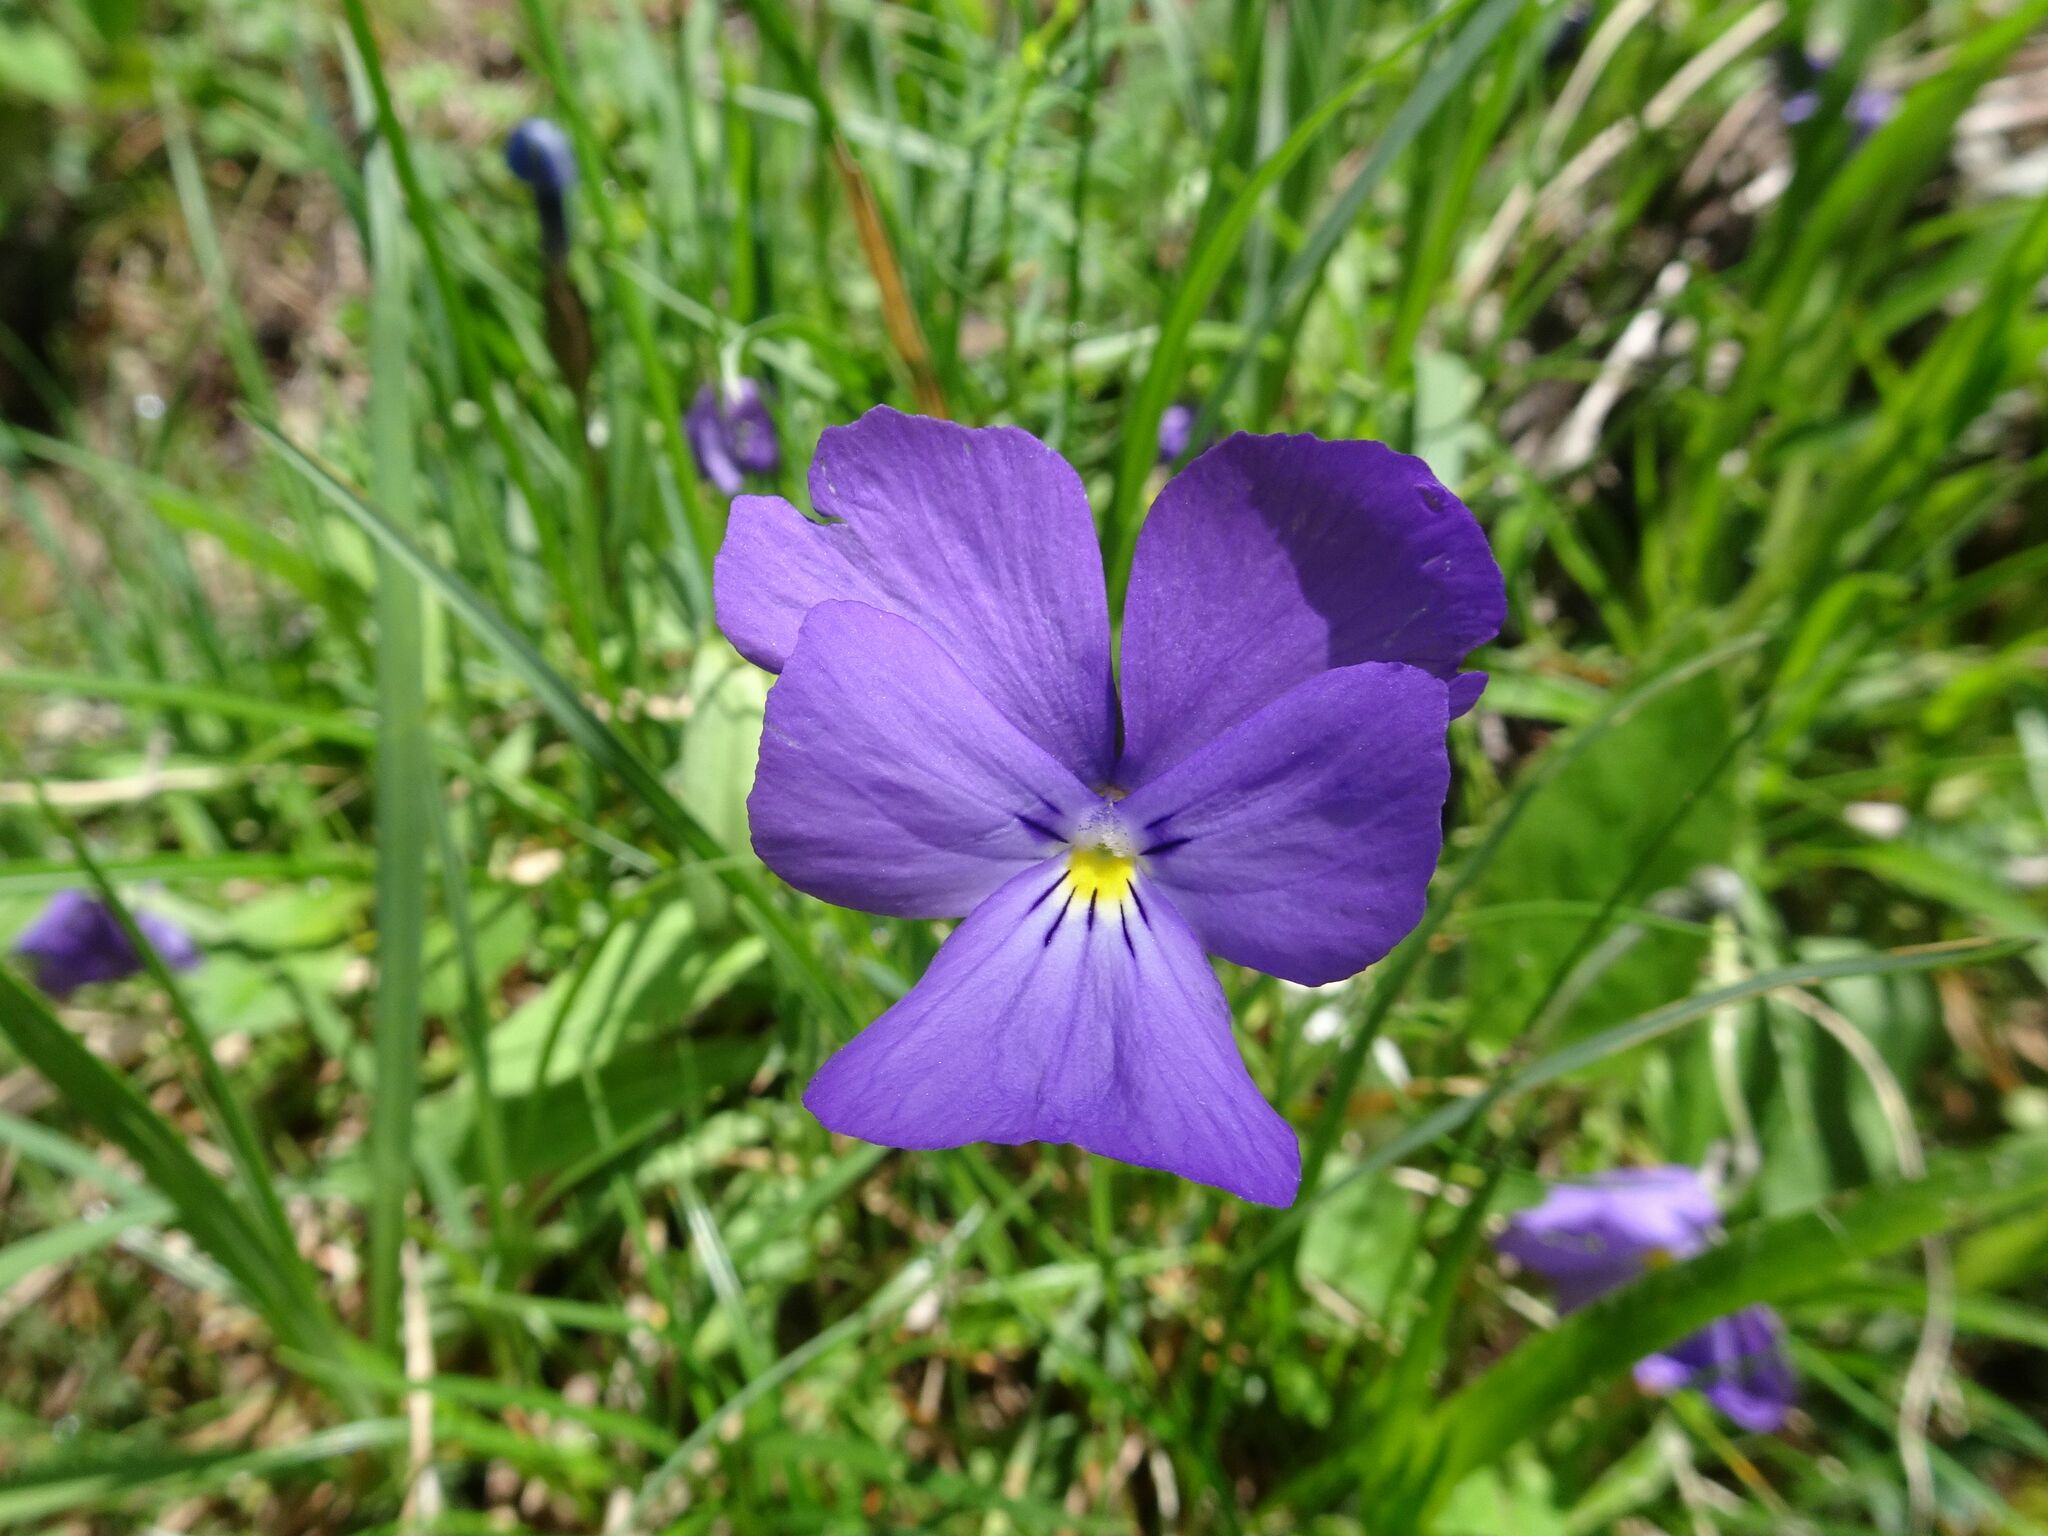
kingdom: Plantae
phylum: Tracheophyta
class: Magnoliopsida
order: Malpighiales
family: Violaceae
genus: Viola
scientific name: Viola calcarata
